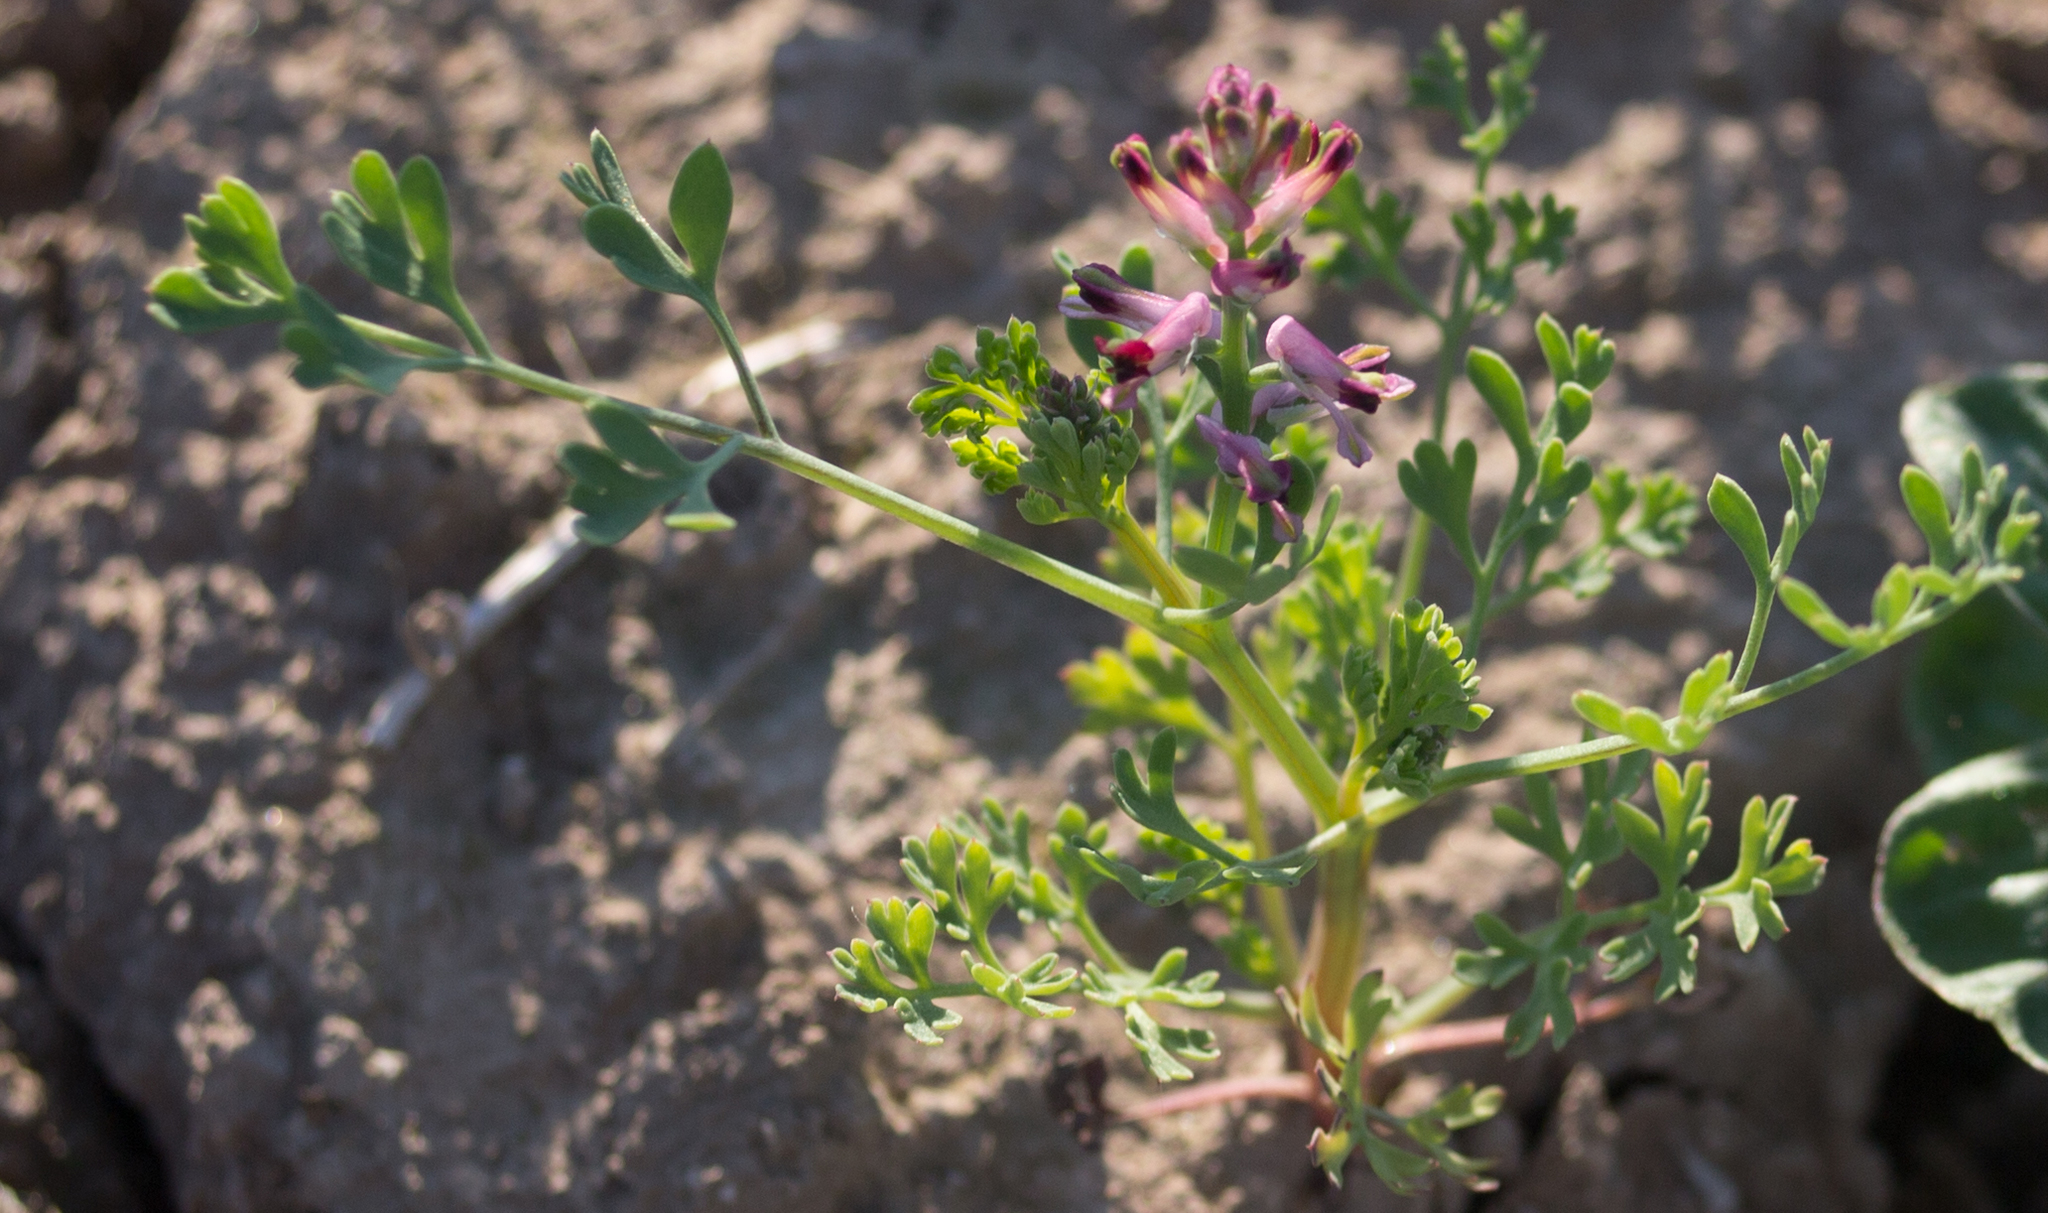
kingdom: Plantae
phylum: Tracheophyta
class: Magnoliopsida
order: Ranunculales
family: Papaveraceae
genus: Fumaria
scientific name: Fumaria officinalis
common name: Common fumitory
